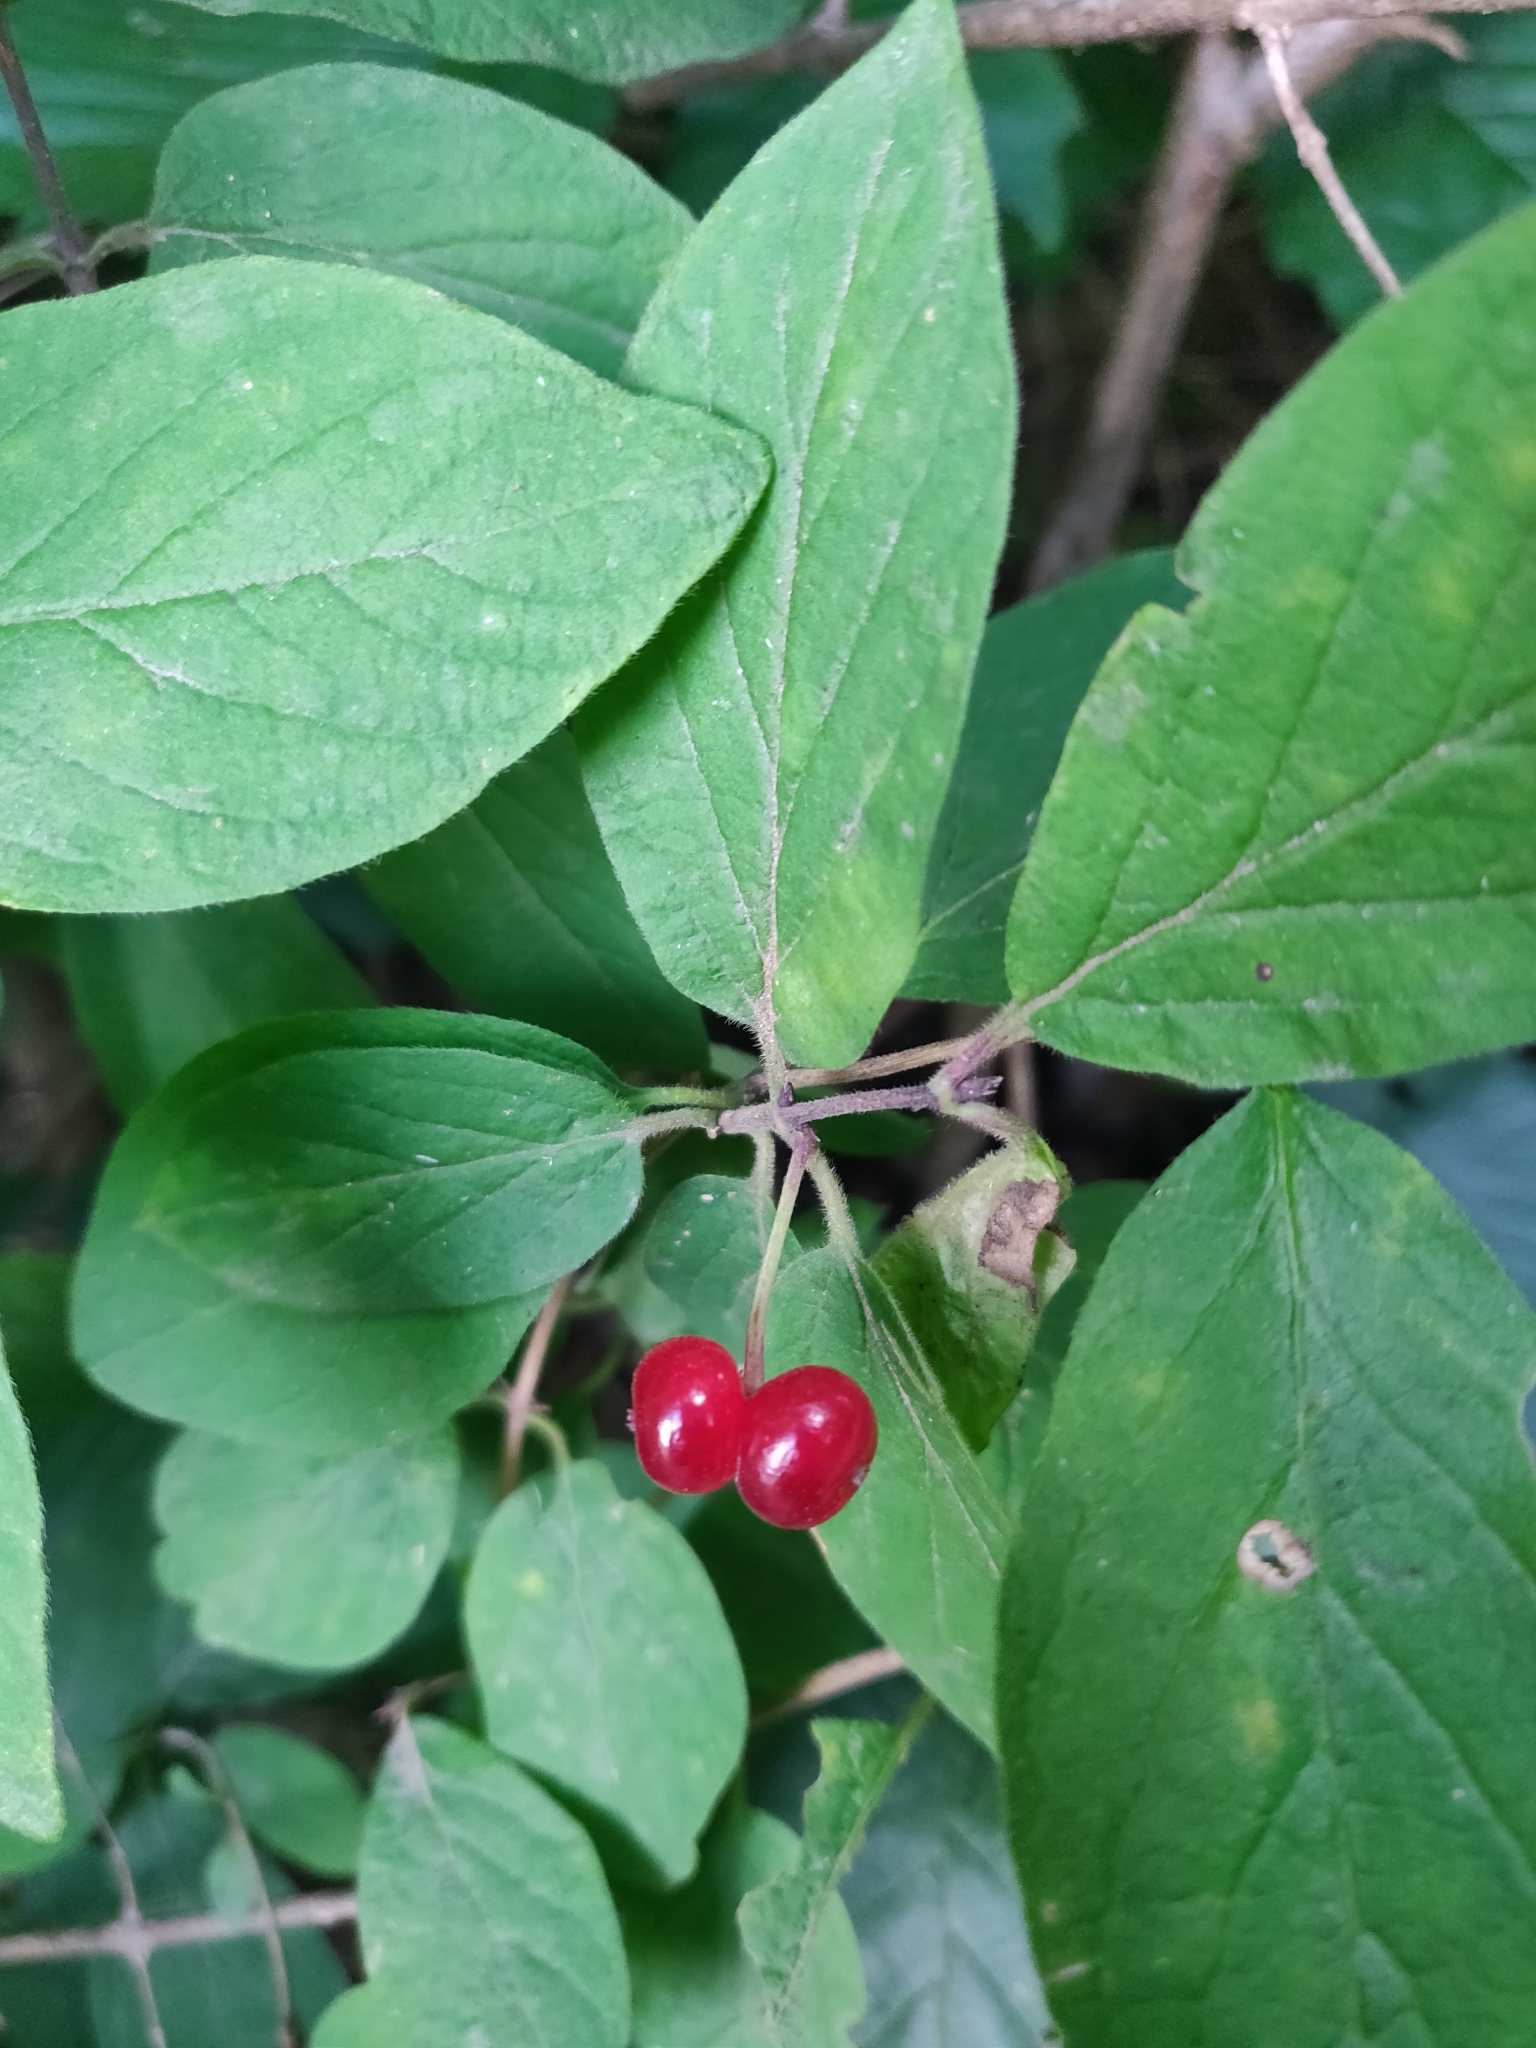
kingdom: Plantae
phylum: Tracheophyta
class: Magnoliopsida
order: Dipsacales
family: Caprifoliaceae
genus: Lonicera
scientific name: Lonicera xylosteum
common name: Fly honeysuckle
